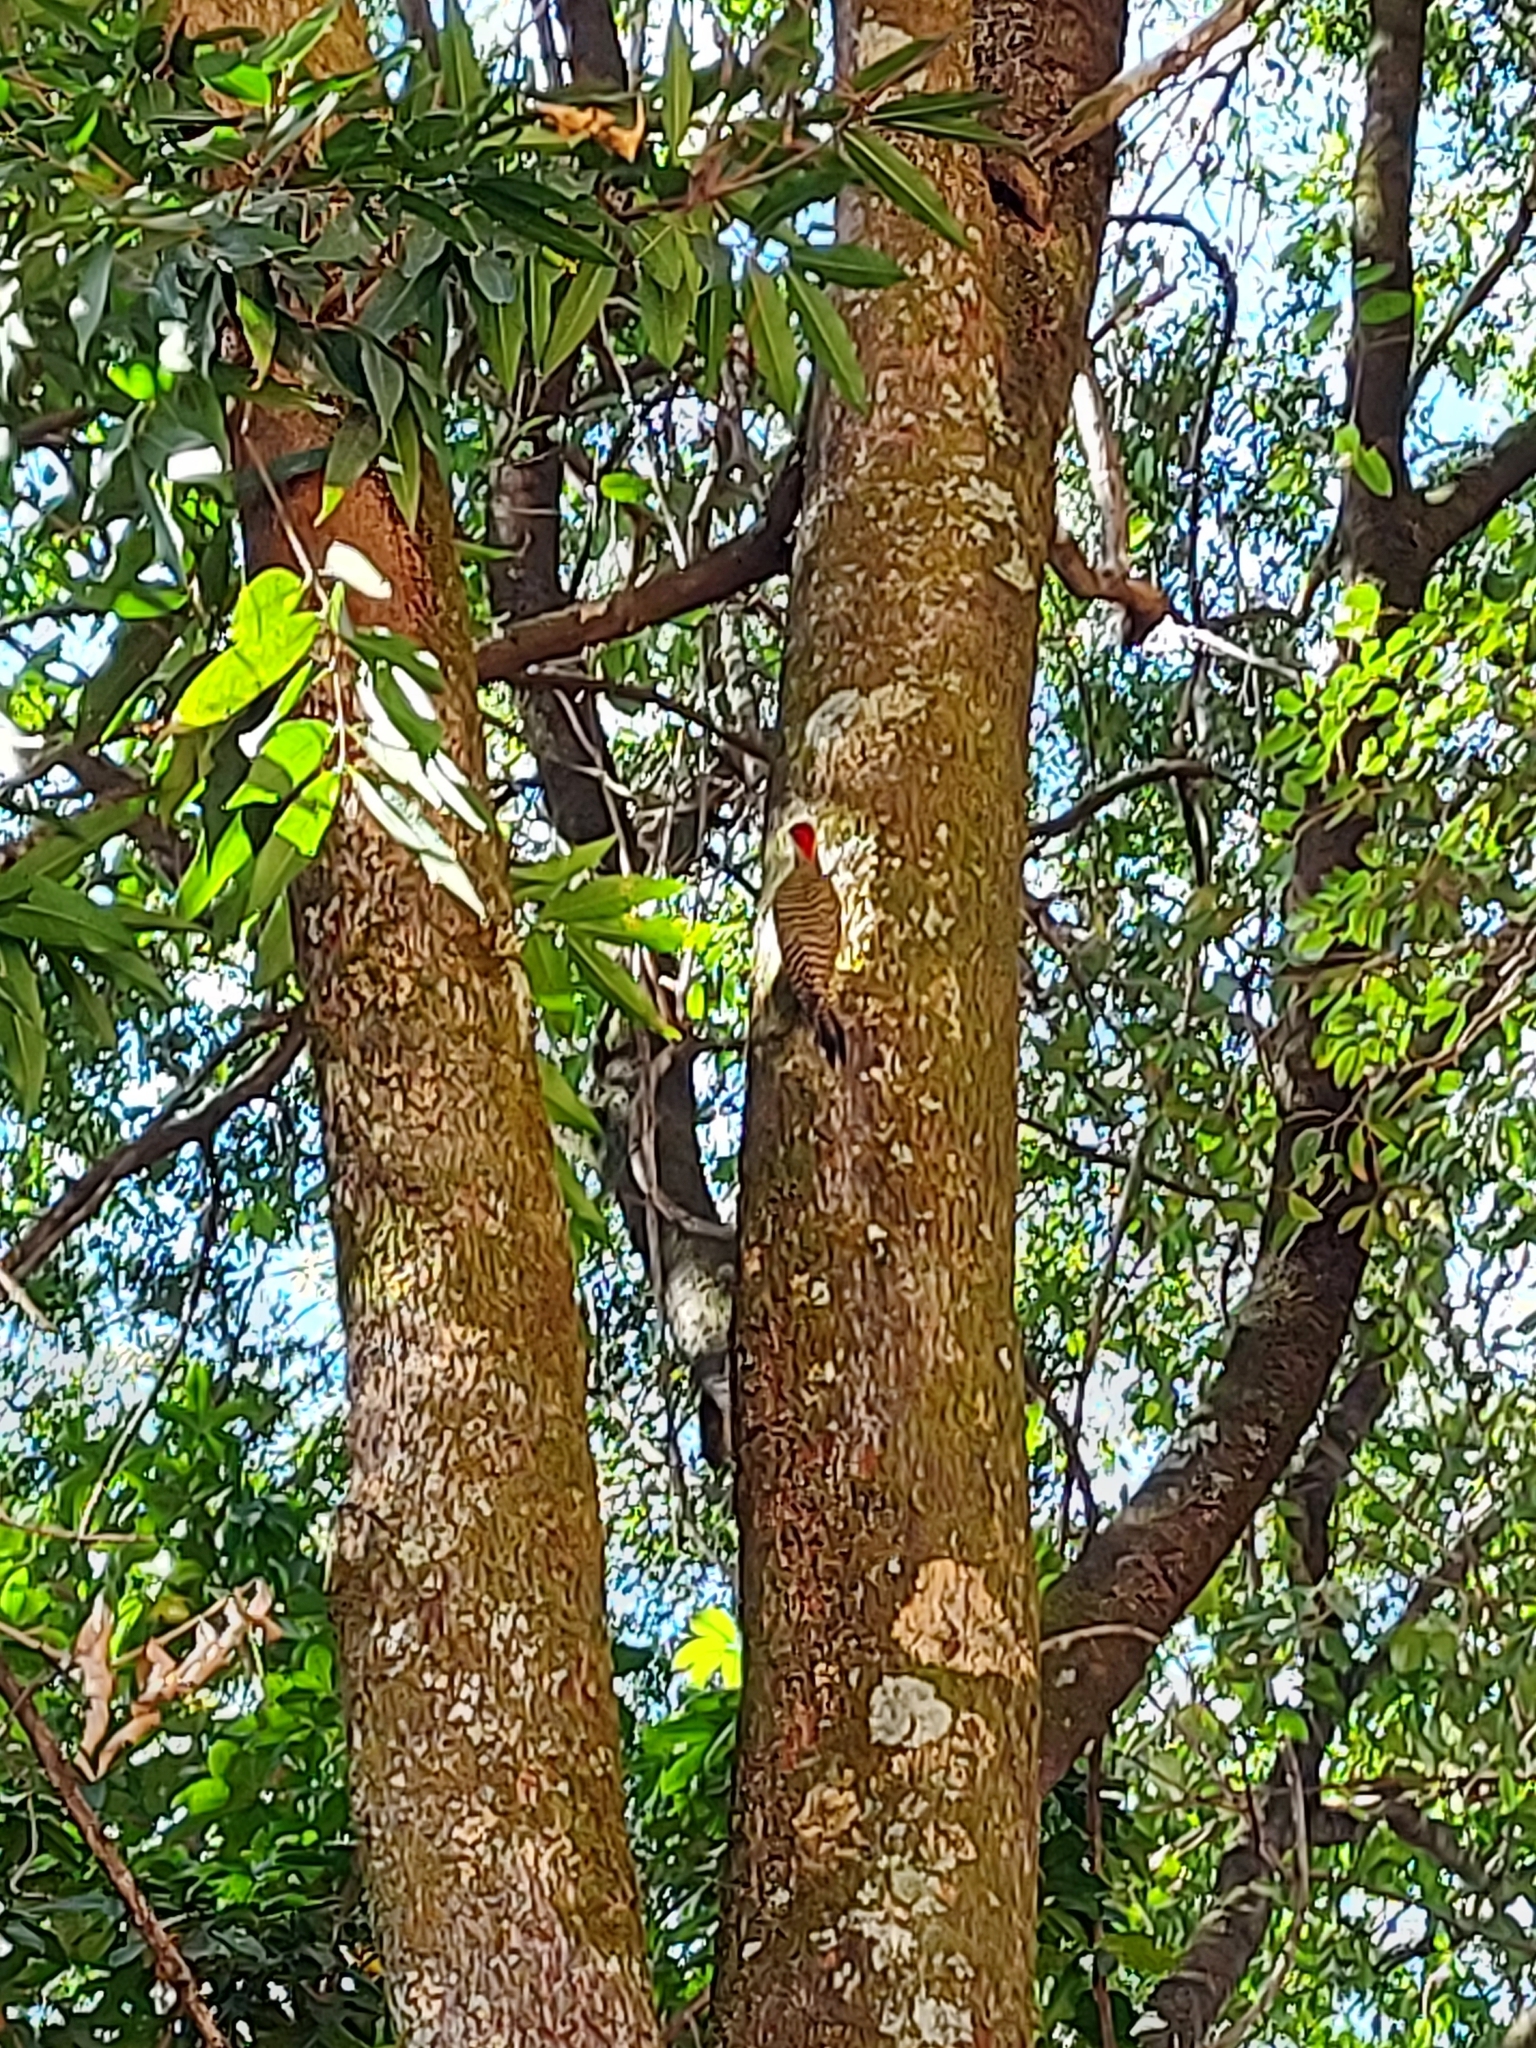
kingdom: Animalia
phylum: Chordata
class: Aves
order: Piciformes
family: Picidae
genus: Colaptes
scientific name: Colaptes melanochloros
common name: Green-barred woodpecker
